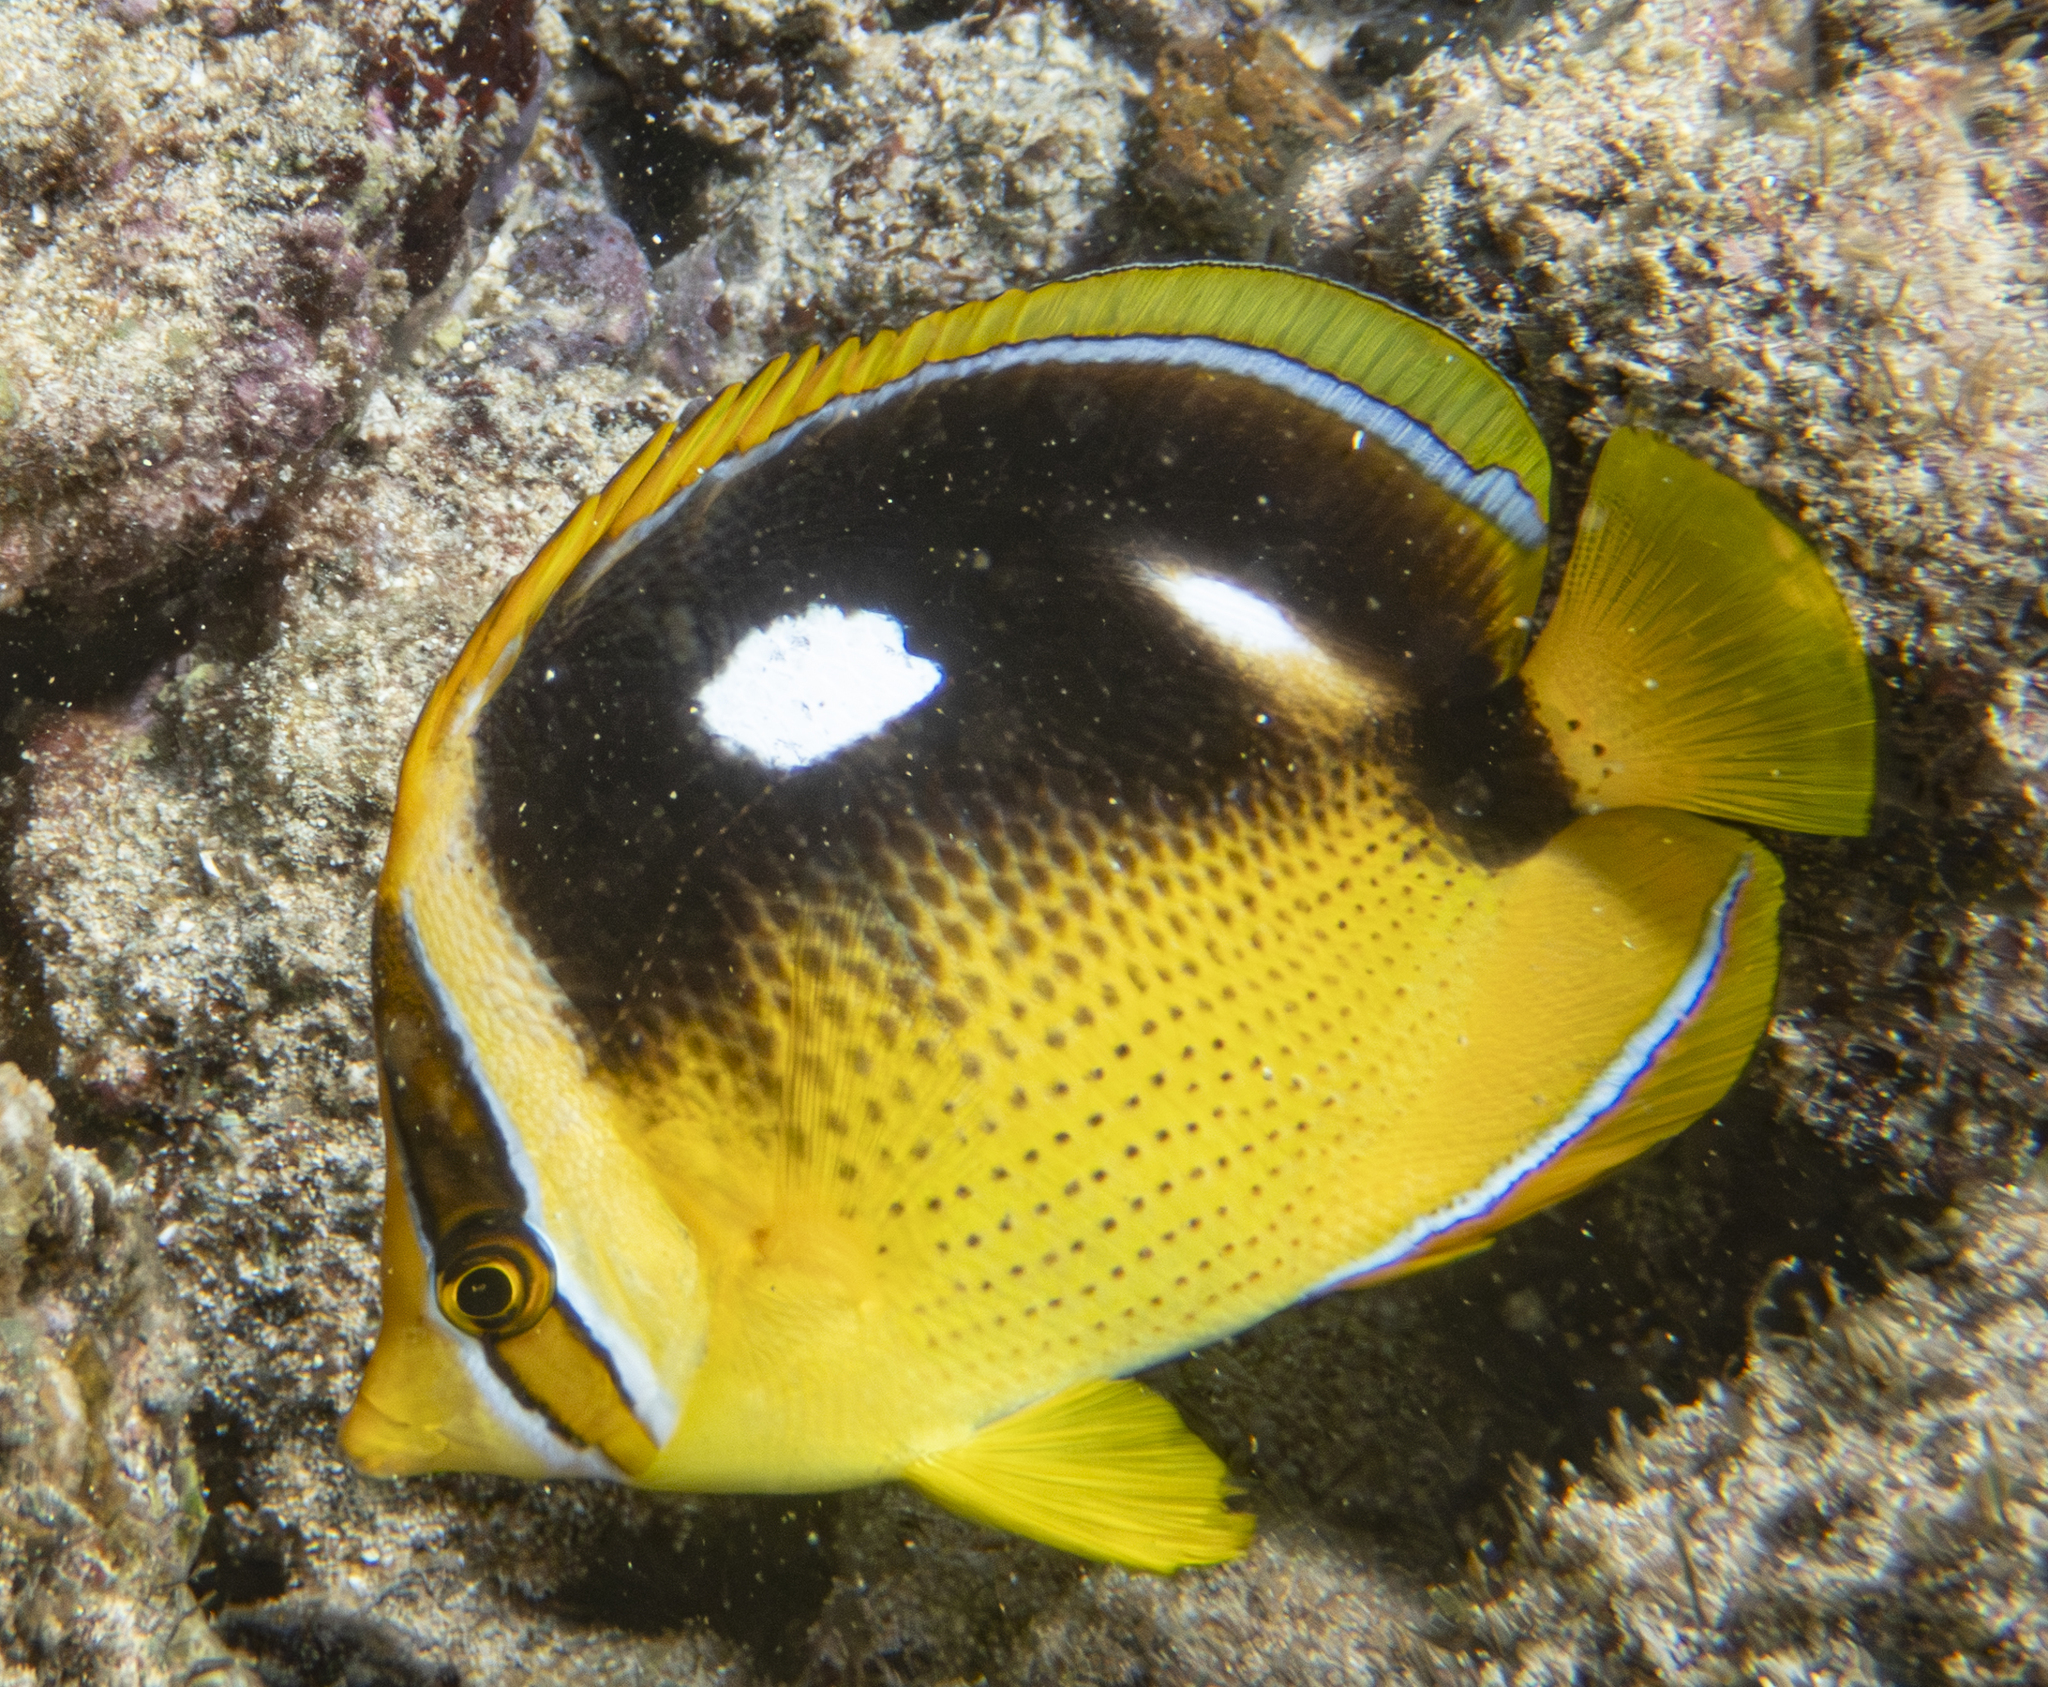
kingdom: Animalia
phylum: Chordata
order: Perciformes
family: Chaetodontidae
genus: Chaetodon
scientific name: Chaetodon quadrimaculatus
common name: Fourspot butterflyfish
